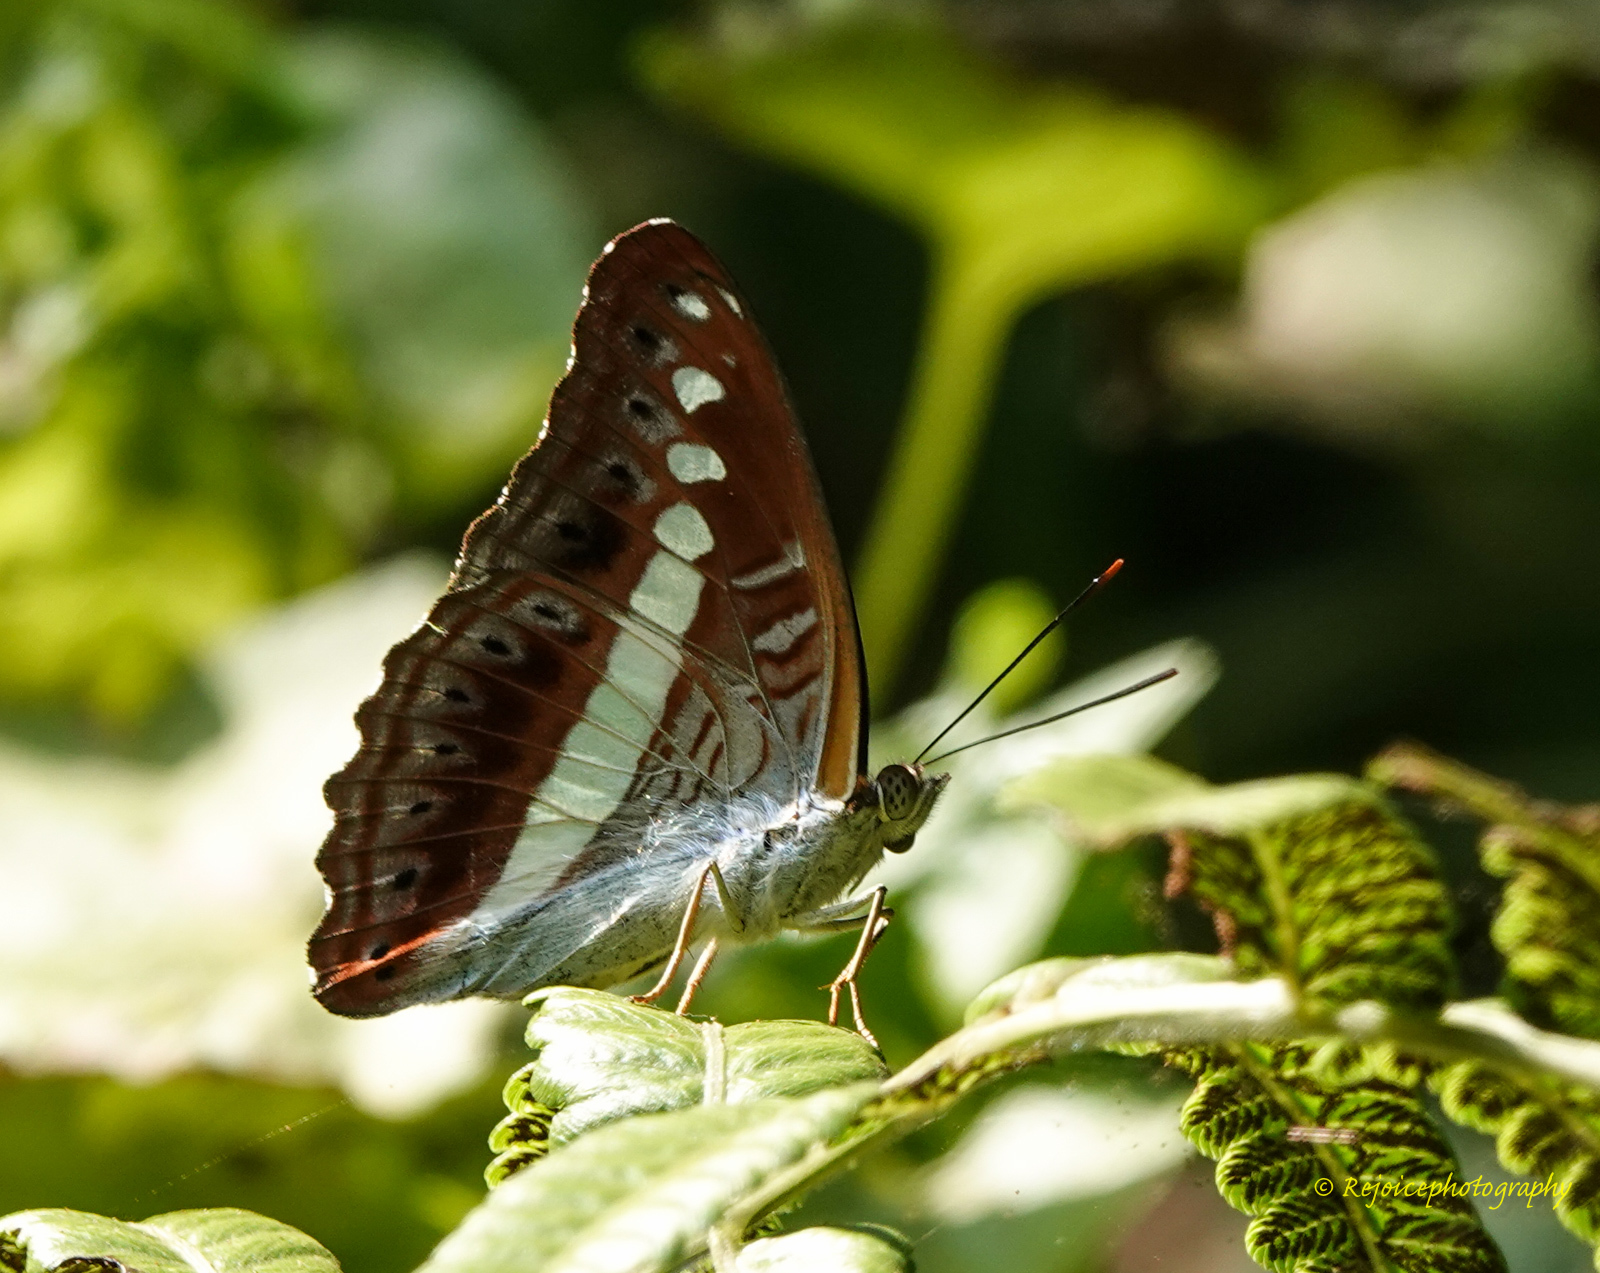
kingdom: Animalia
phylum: Arthropoda
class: Insecta
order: Lepidoptera
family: Nymphalidae
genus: Limenitis
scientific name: Limenitis Sumalia daraxa
